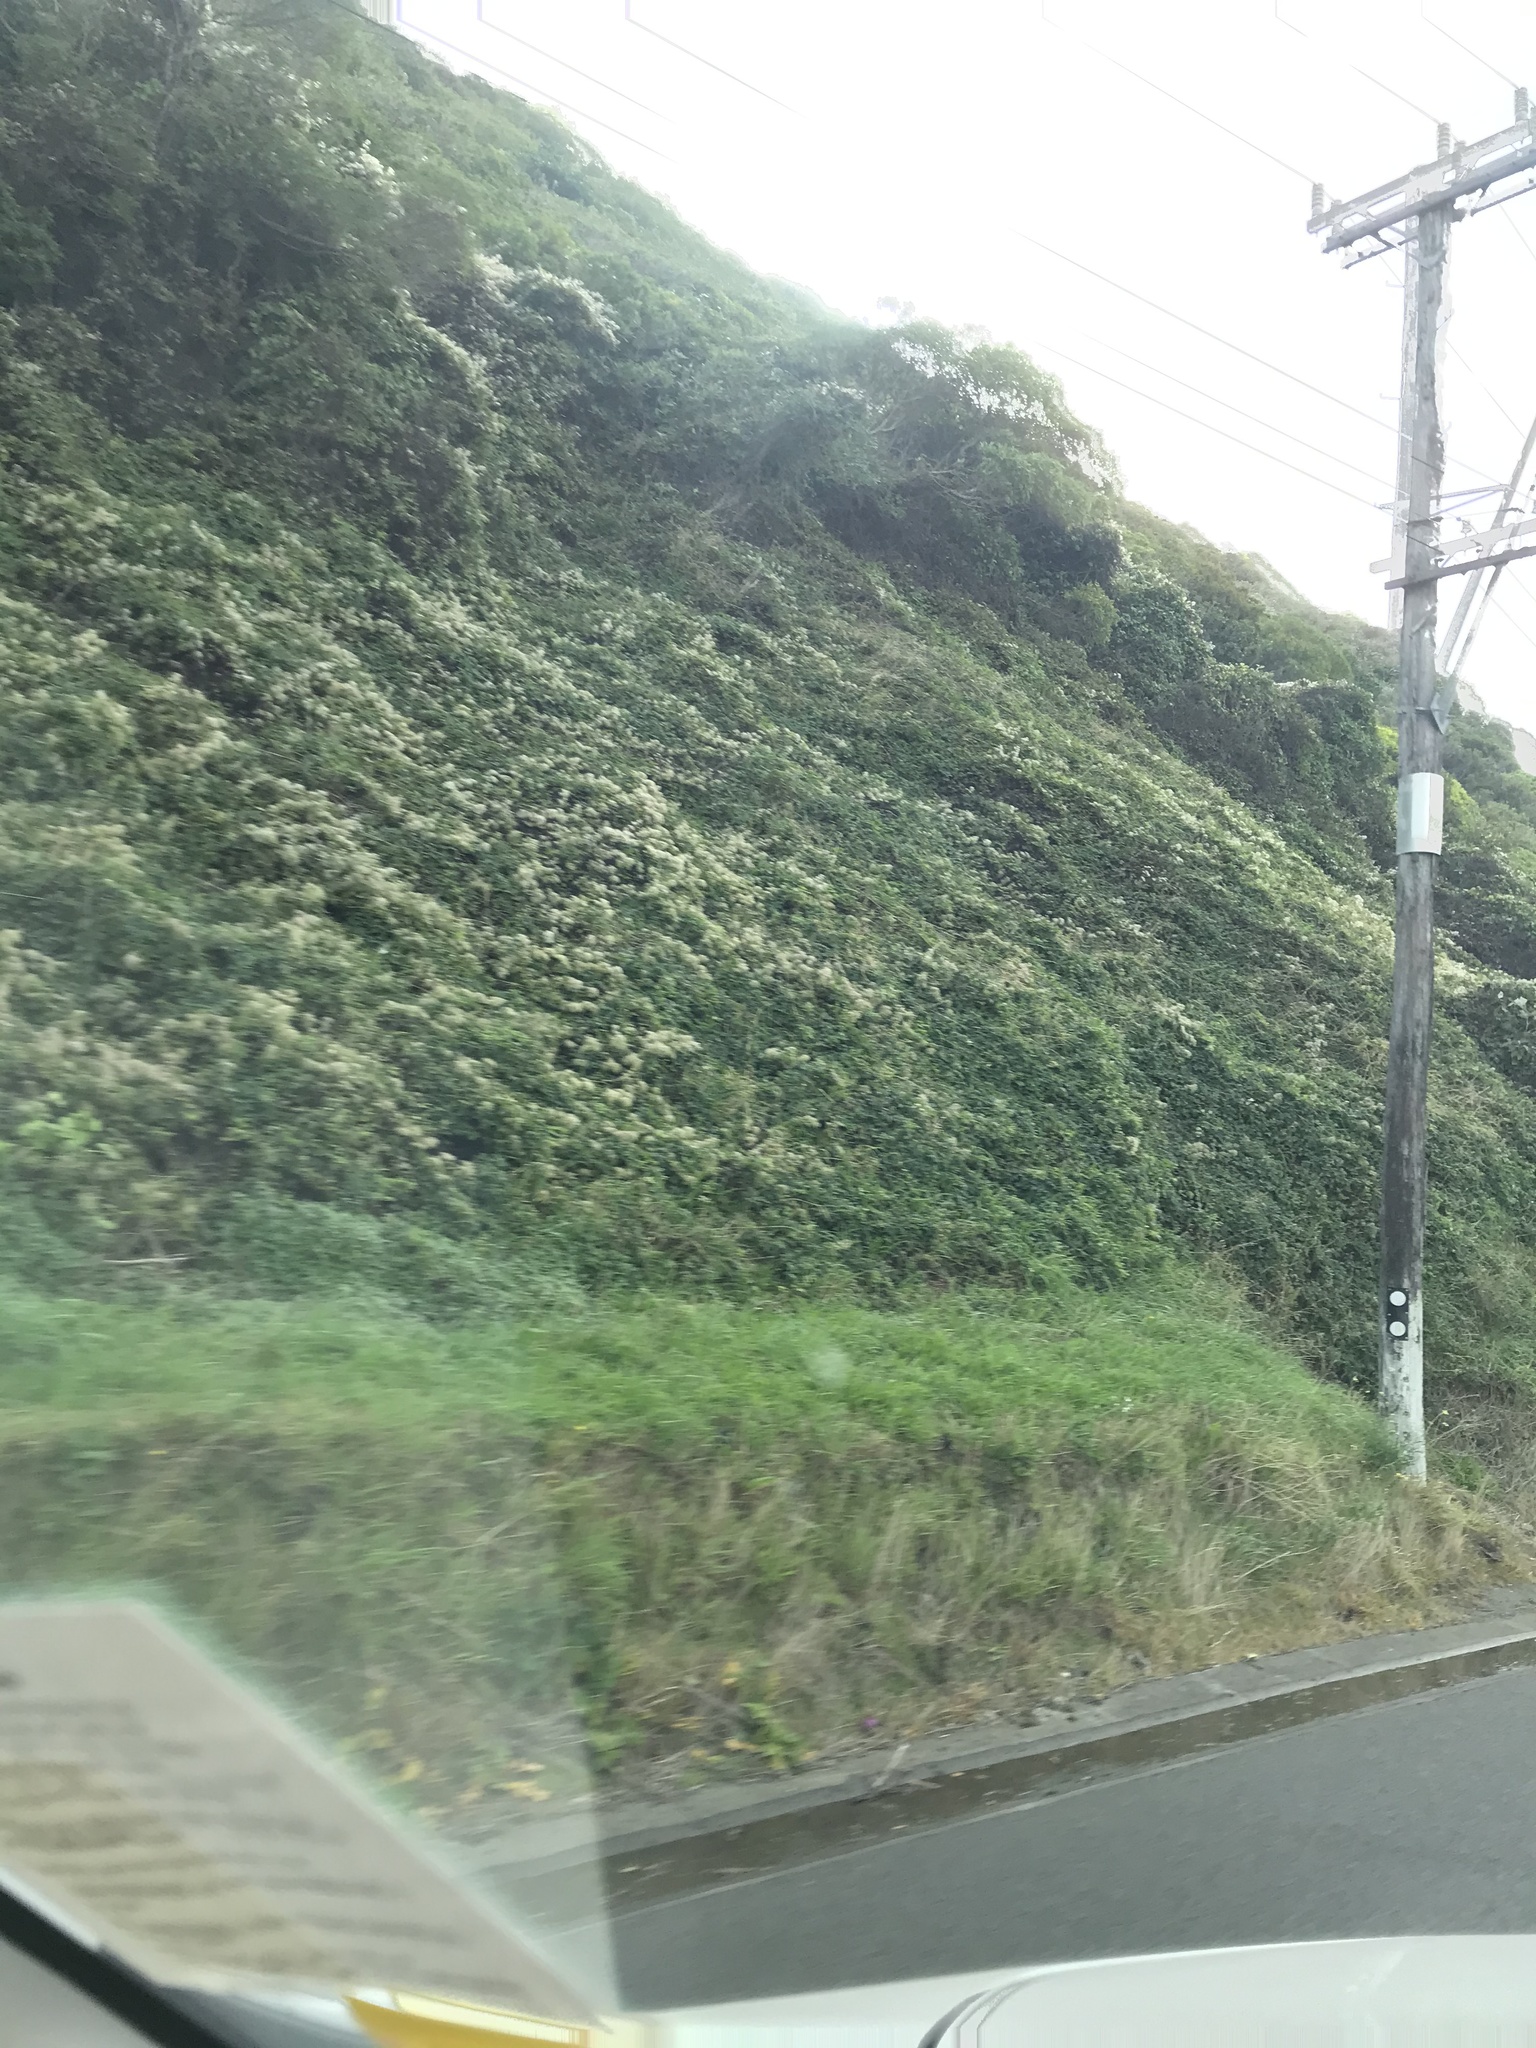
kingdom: Plantae
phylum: Tracheophyta
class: Magnoliopsida
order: Ranunculales
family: Ranunculaceae
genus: Clematis
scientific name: Clematis vitalba
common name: Evergreen clematis
